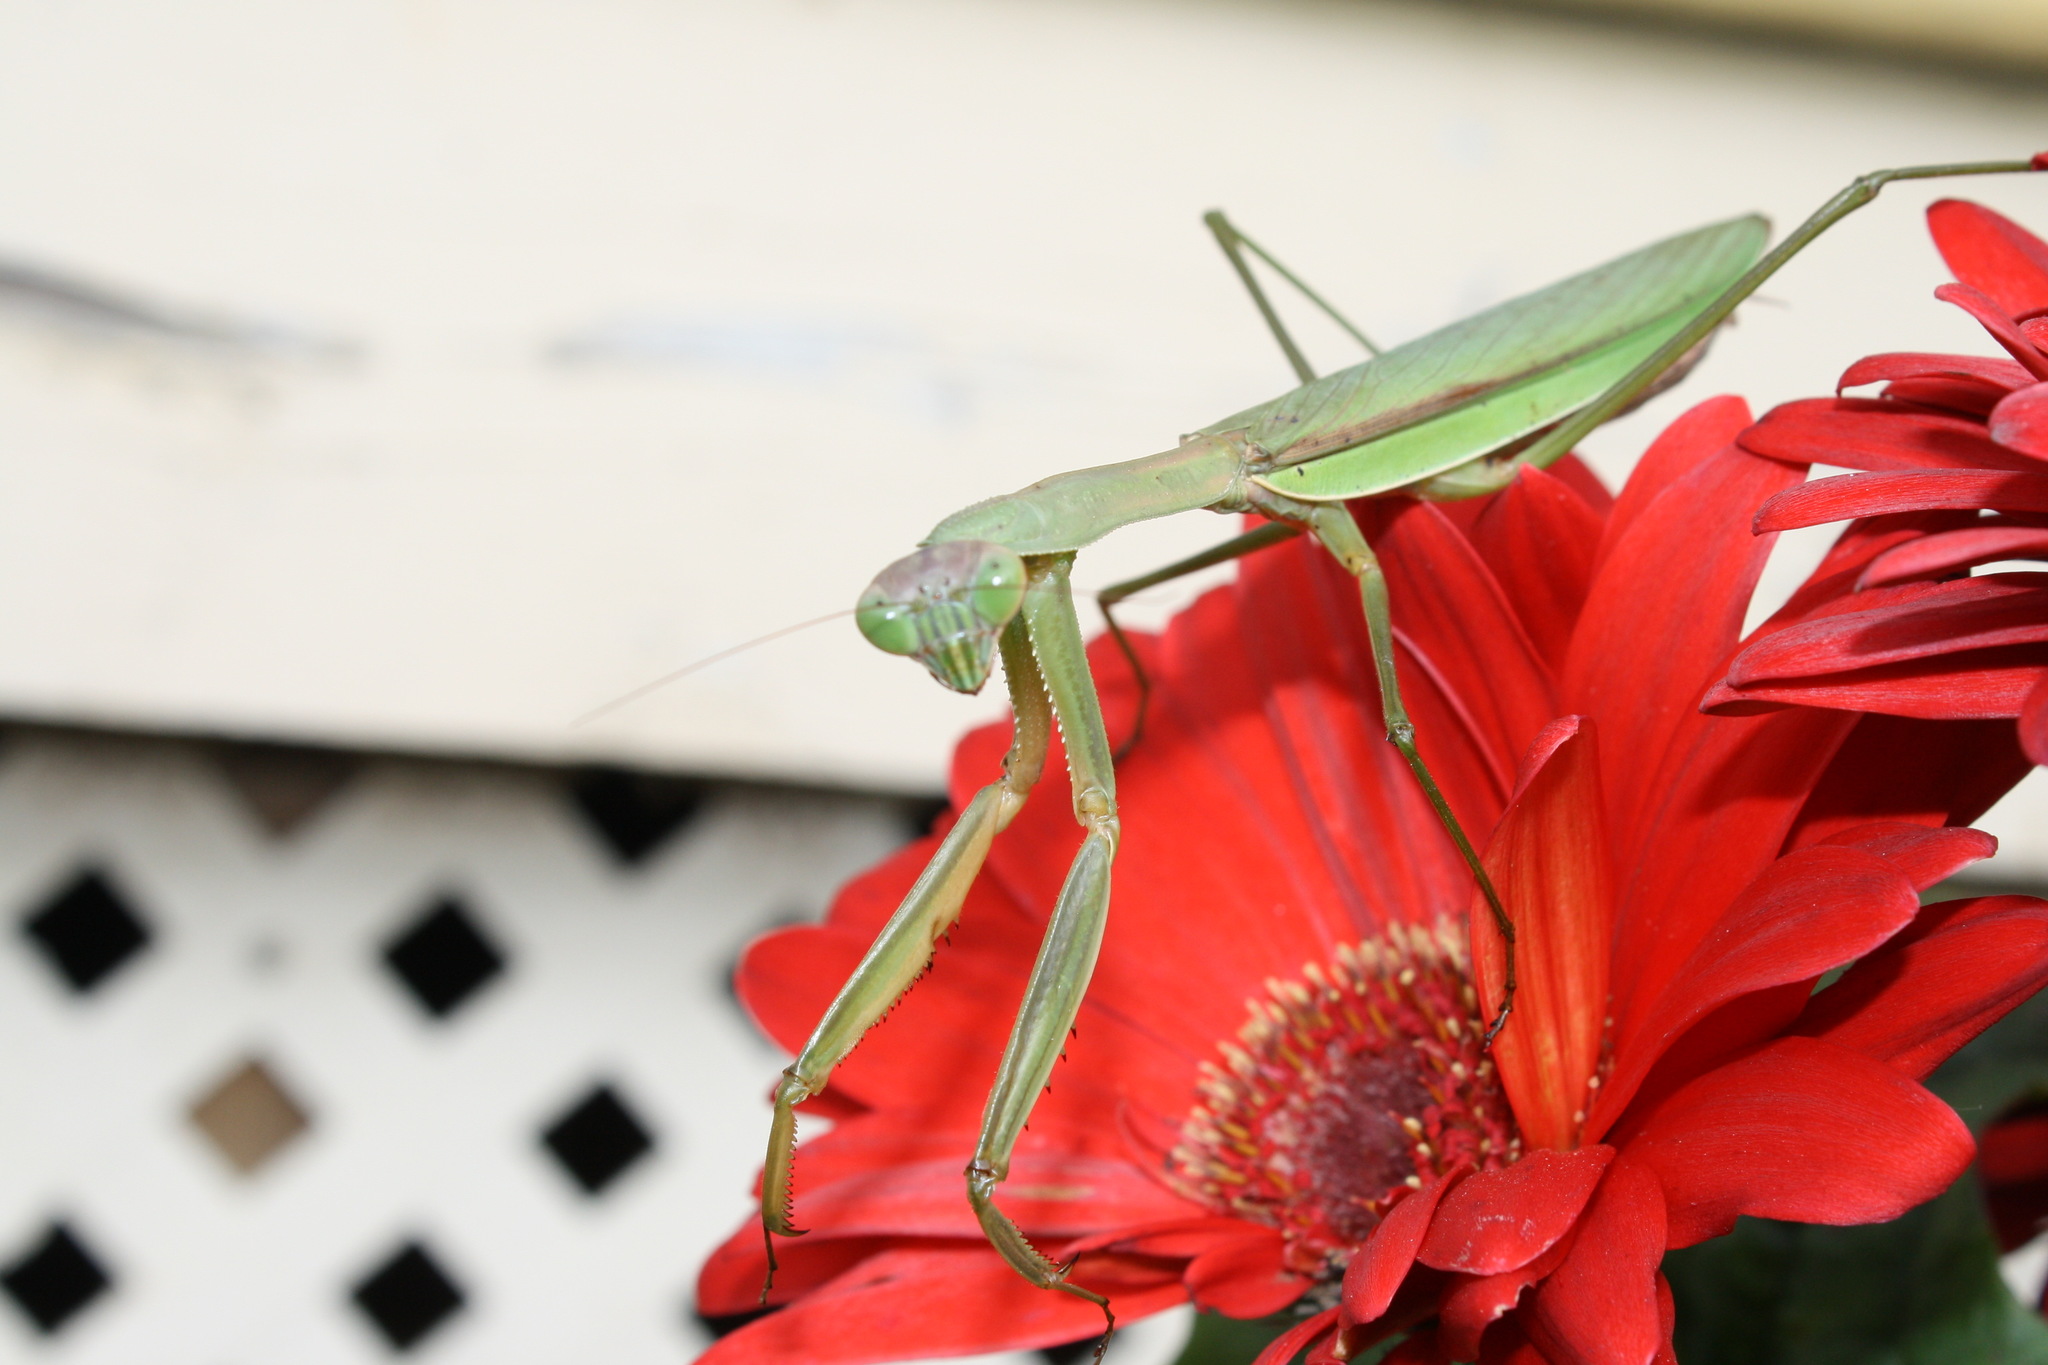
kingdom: Animalia
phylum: Arthropoda
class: Insecta
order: Mantodea
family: Mantidae
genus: Tenodera
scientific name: Tenodera sinensis
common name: Chinese mantis
